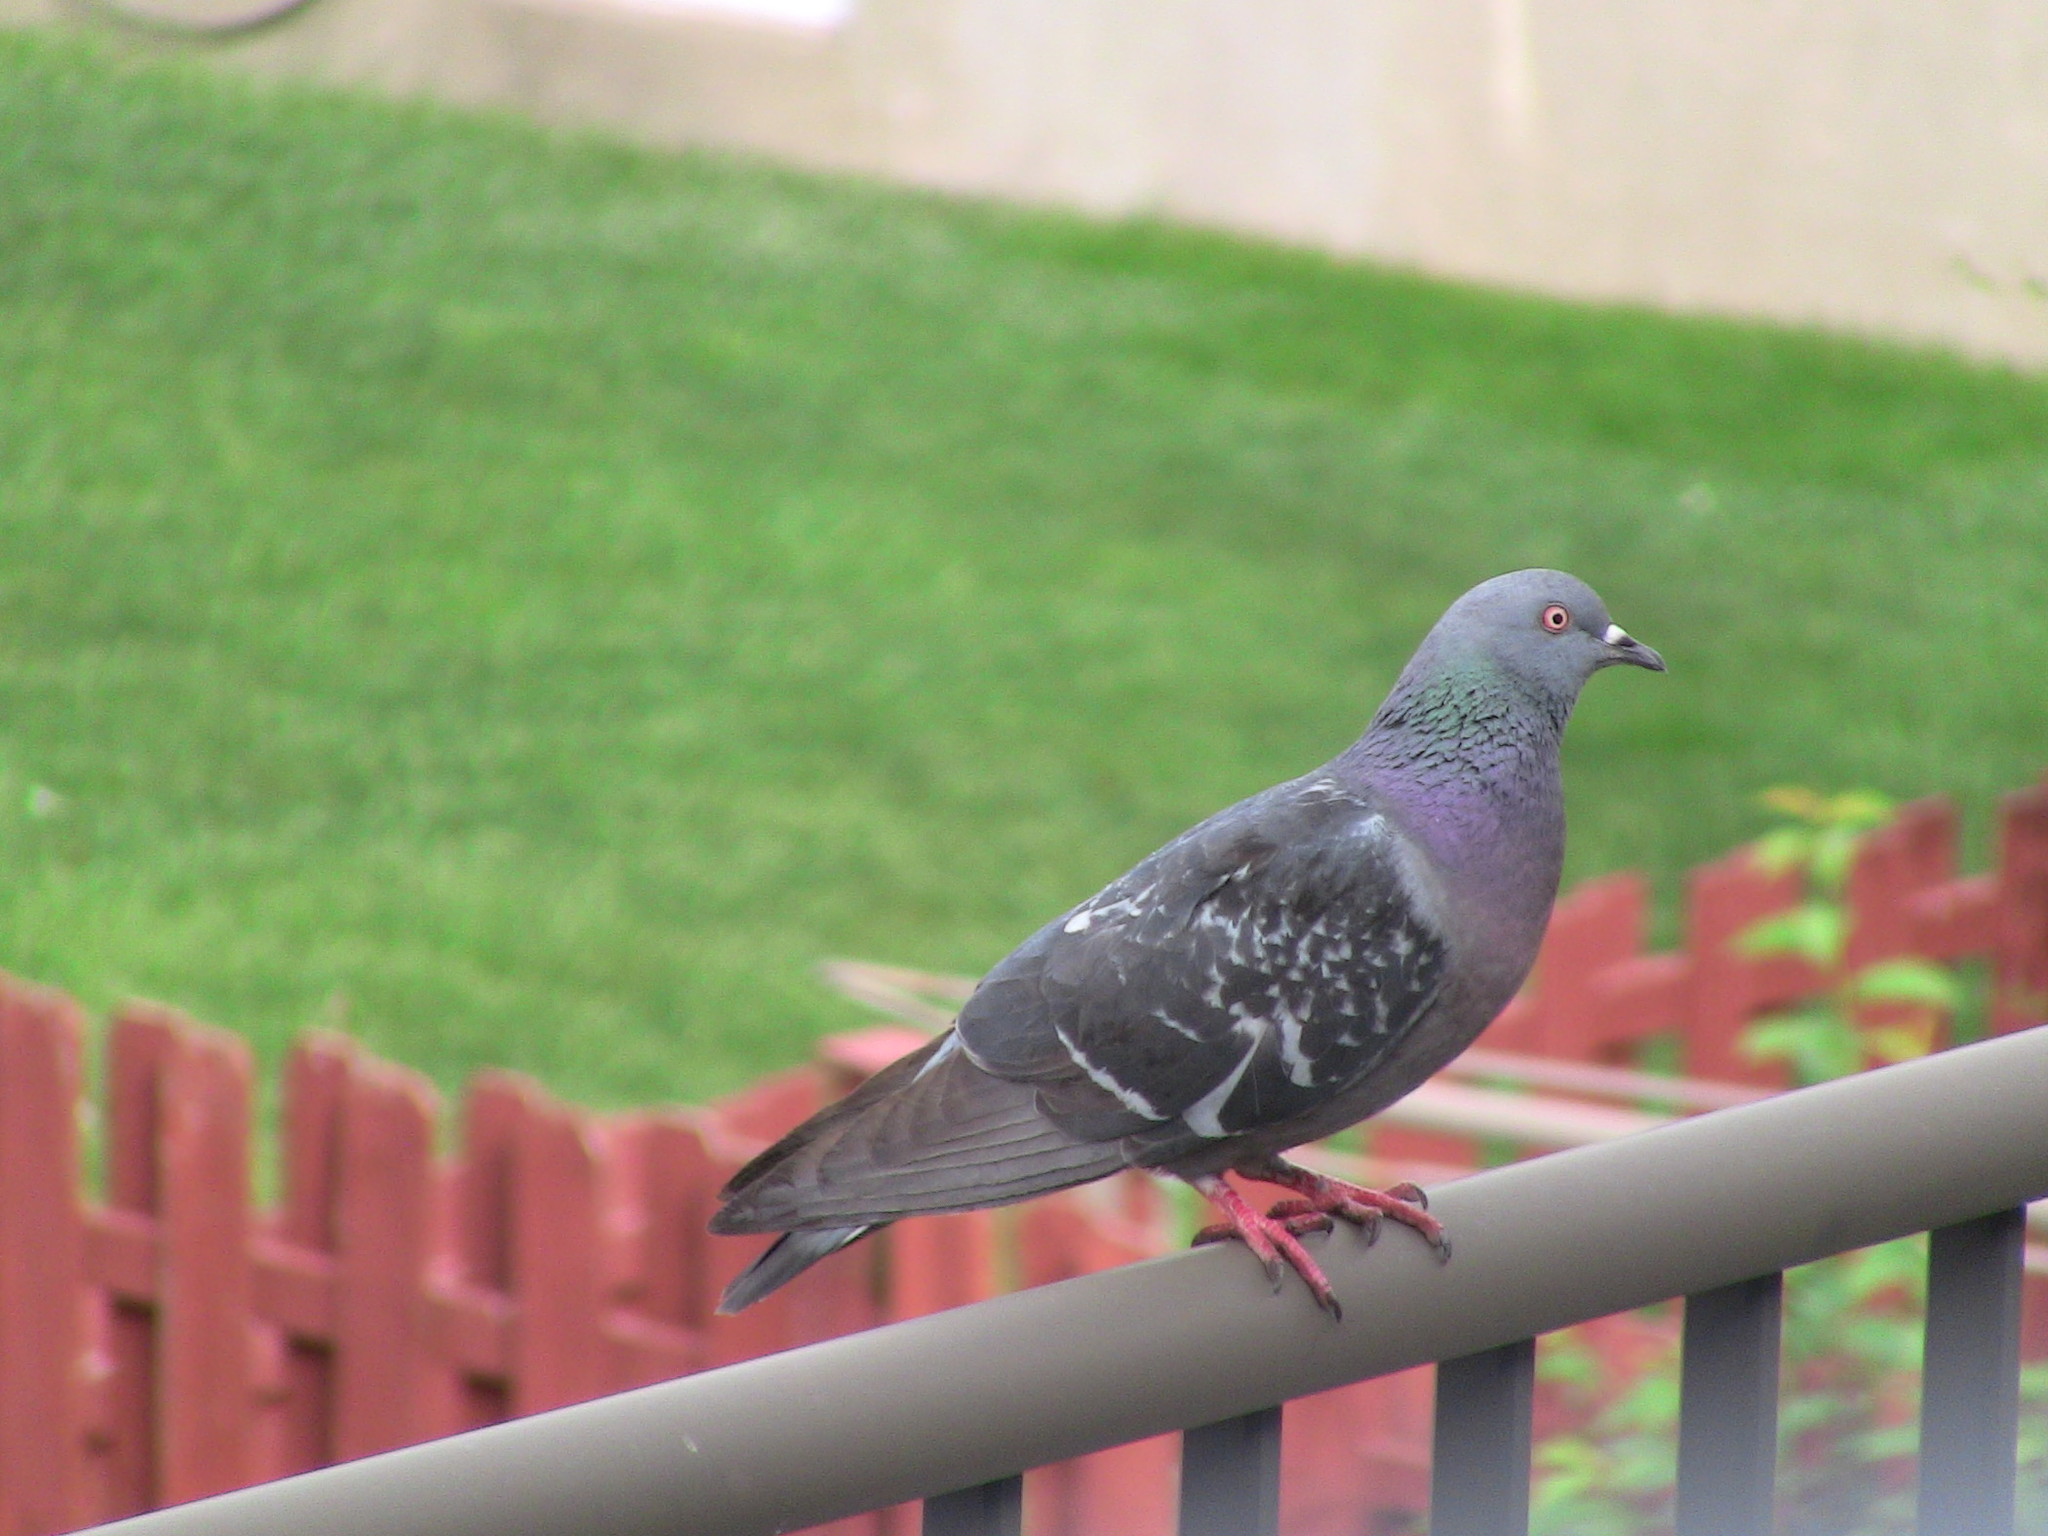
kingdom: Animalia
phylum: Chordata
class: Aves
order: Columbiformes
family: Columbidae
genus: Columba
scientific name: Columba livia
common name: Rock pigeon
